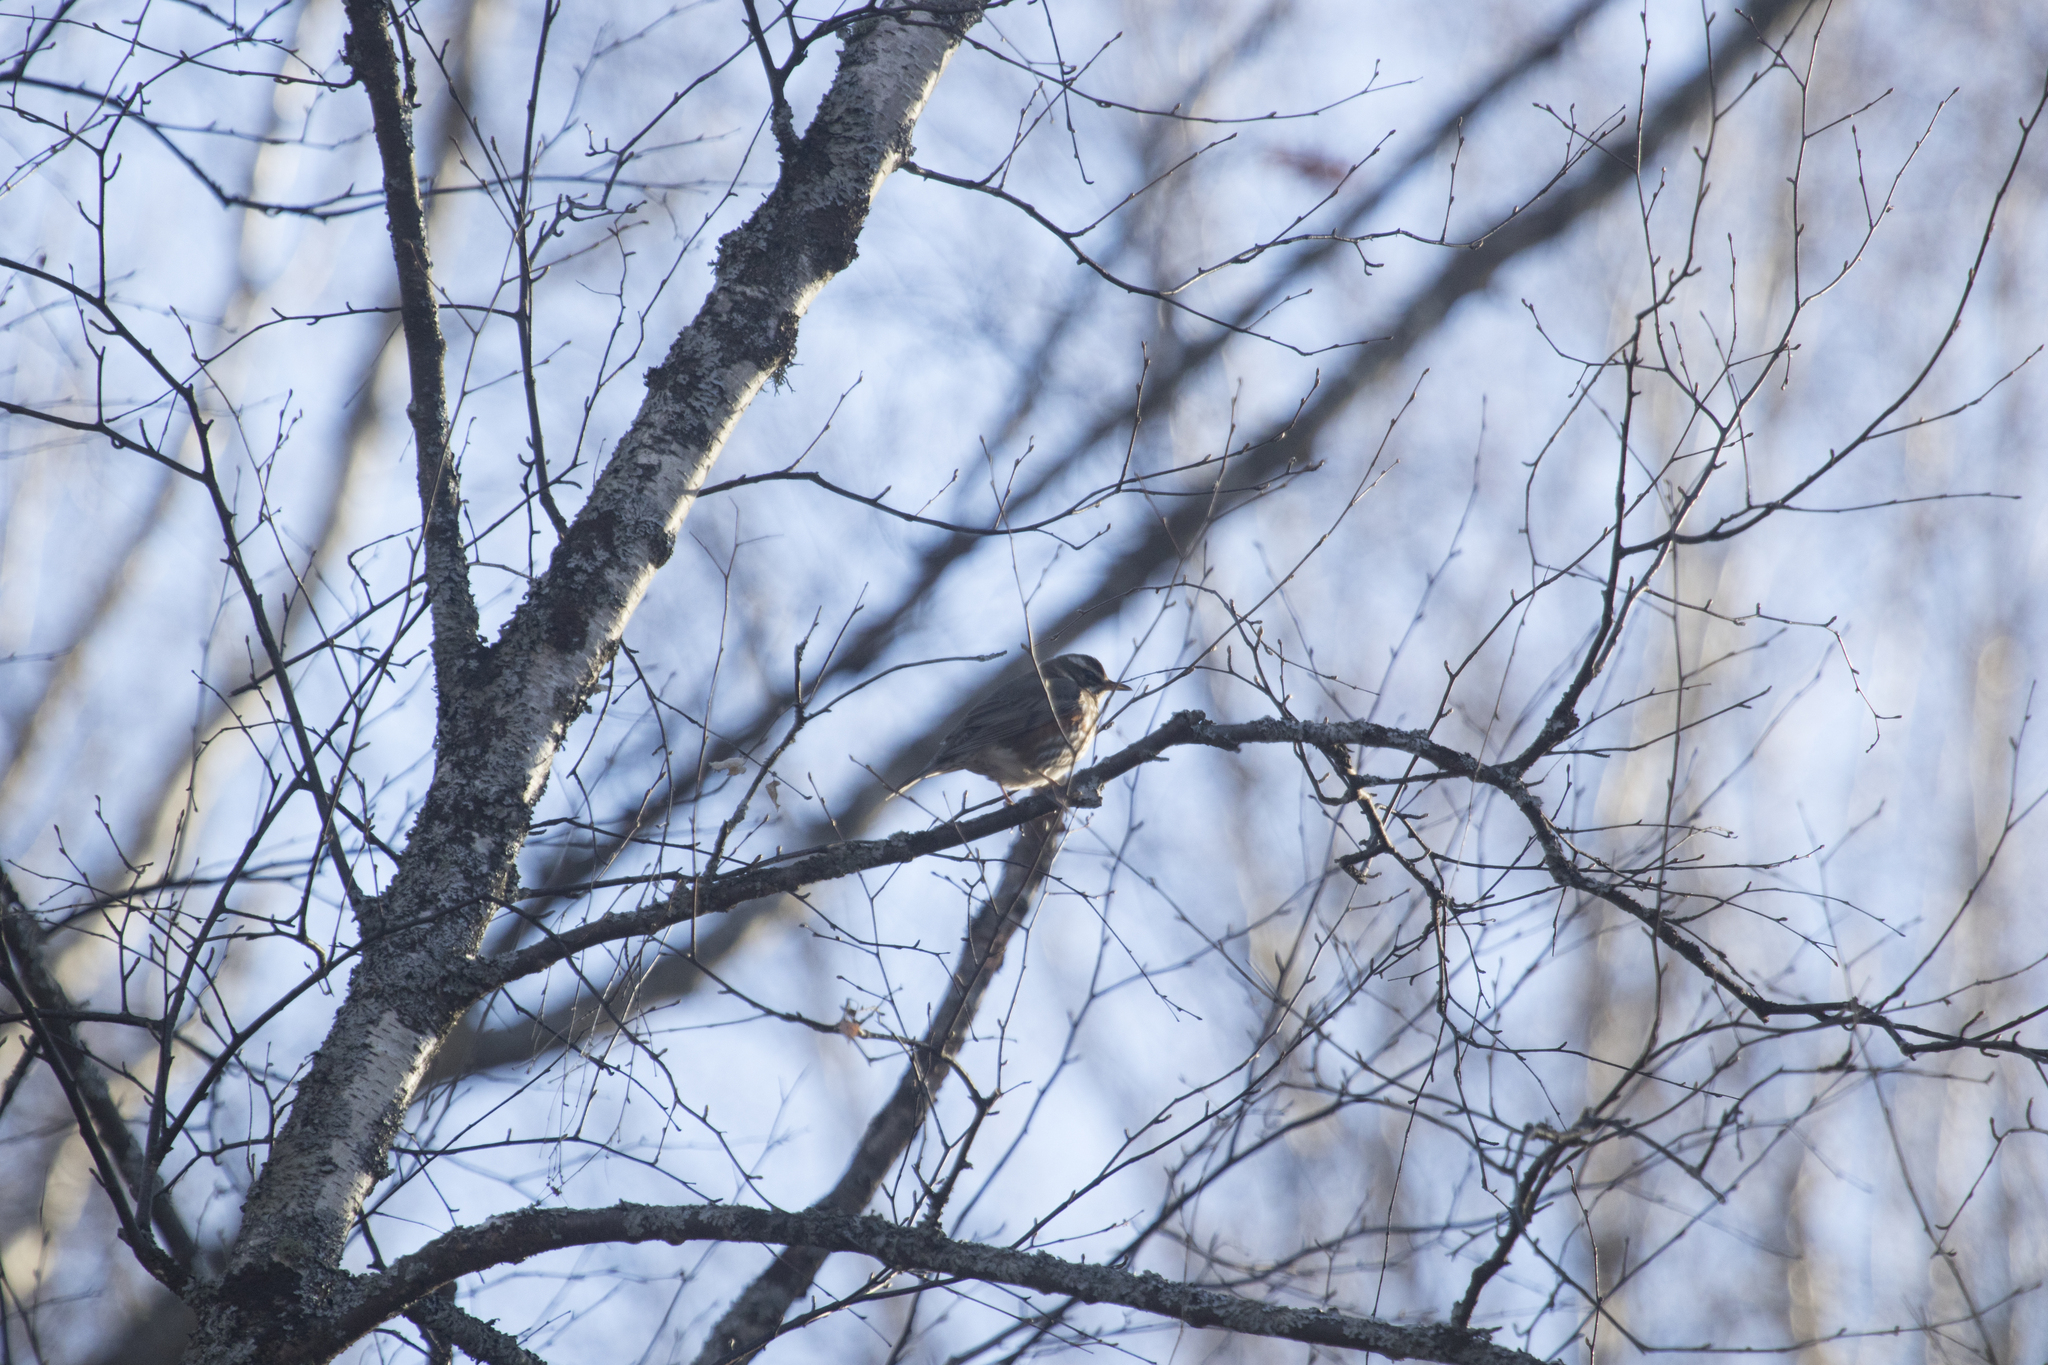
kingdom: Animalia
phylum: Chordata
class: Aves
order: Passeriformes
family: Turdidae
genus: Turdus
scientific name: Turdus iliacus
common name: Redwing
